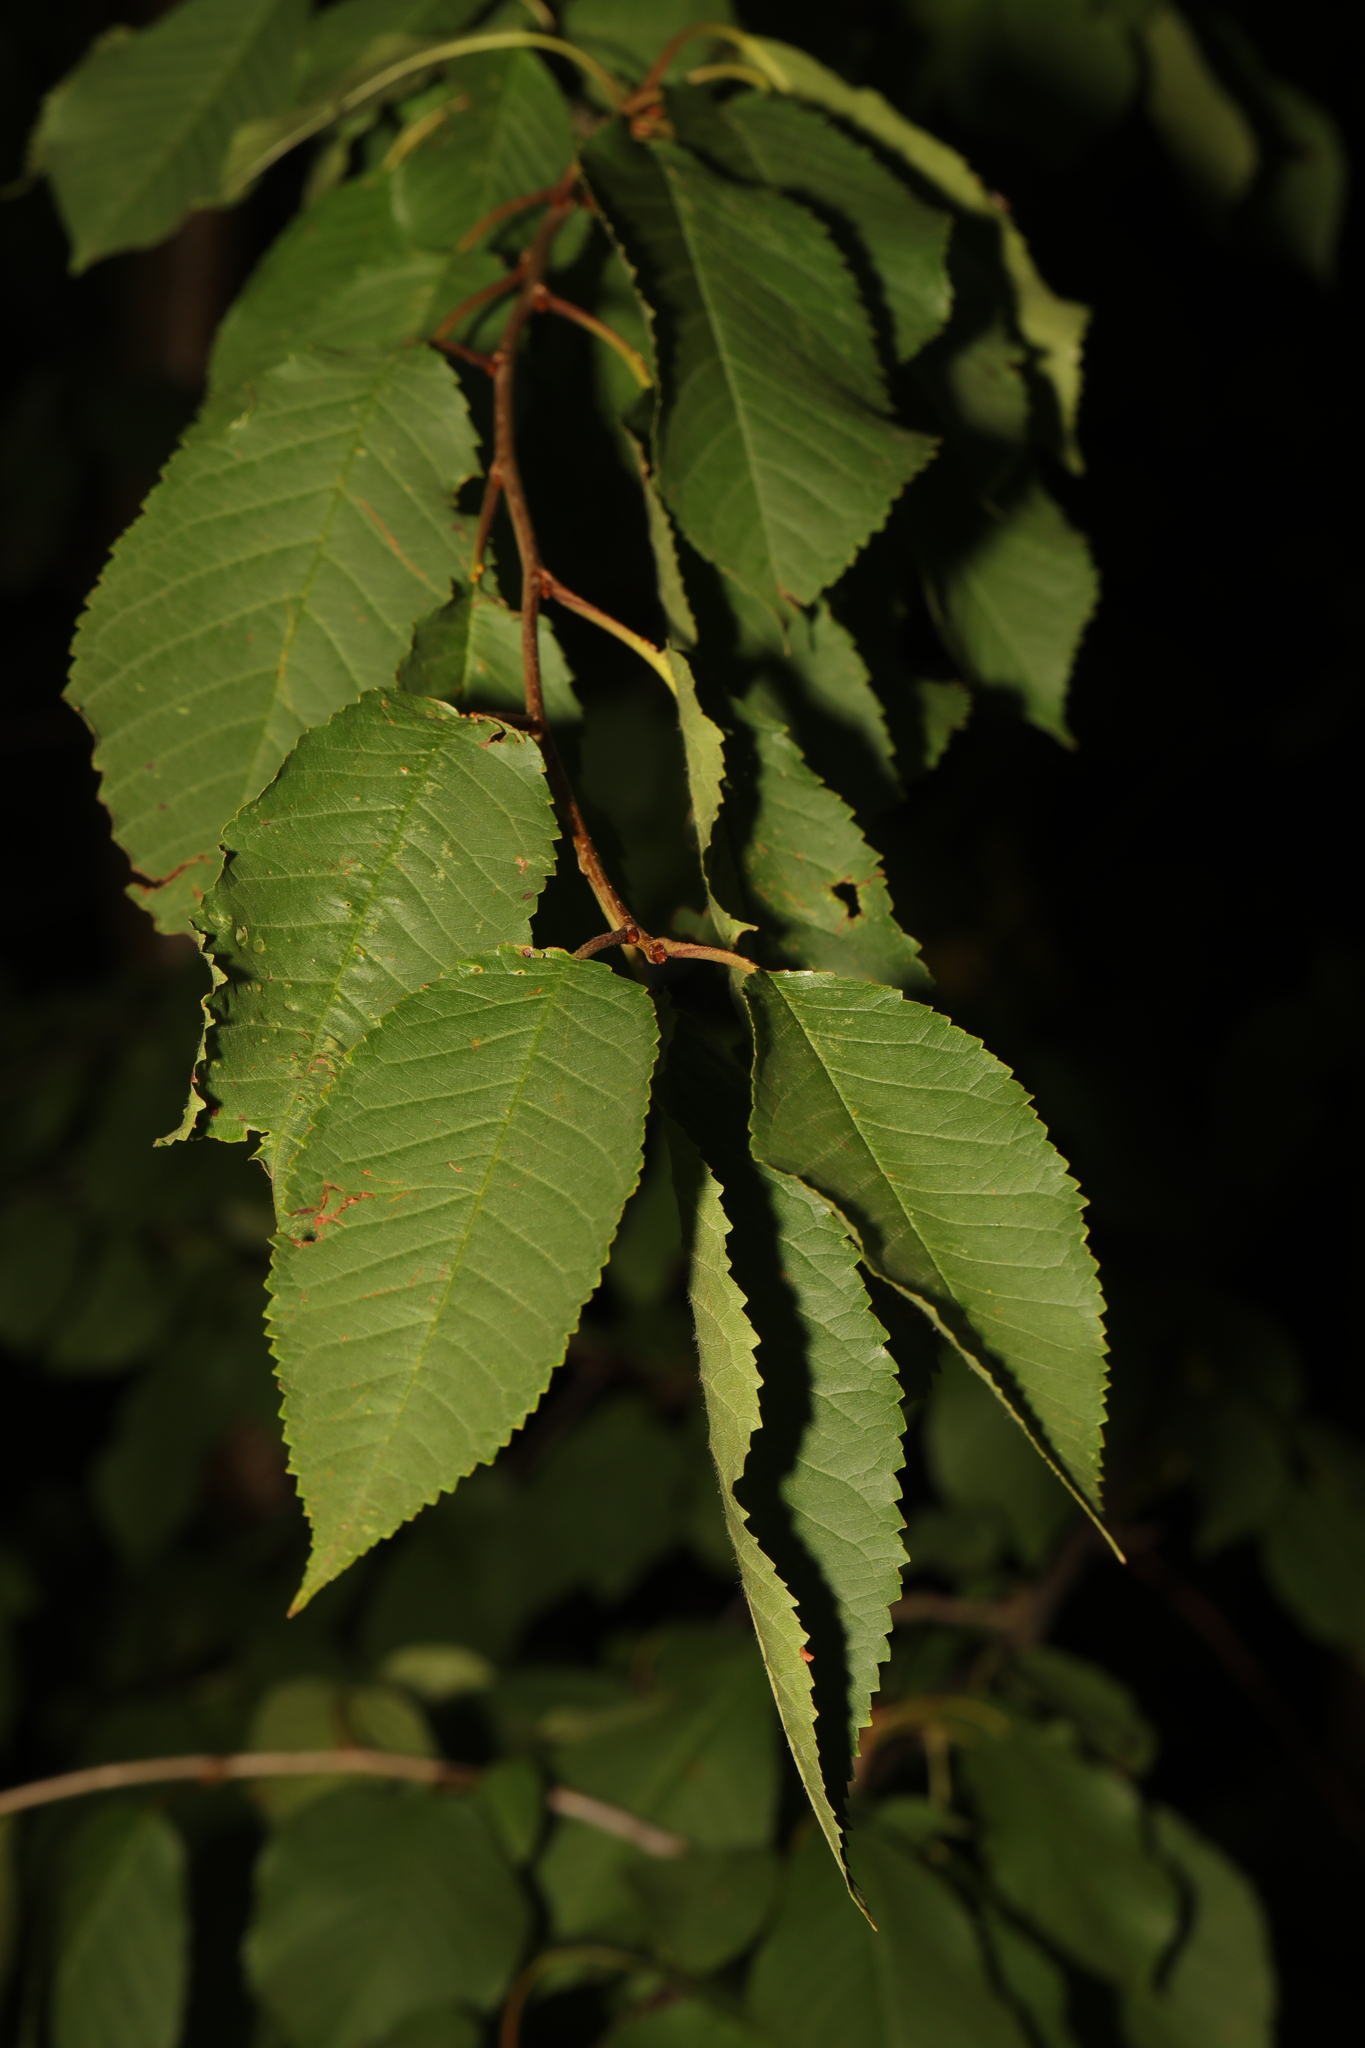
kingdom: Plantae
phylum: Tracheophyta
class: Magnoliopsida
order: Rosales
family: Rosaceae
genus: Prunus
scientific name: Prunus avium
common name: Sweet cherry
